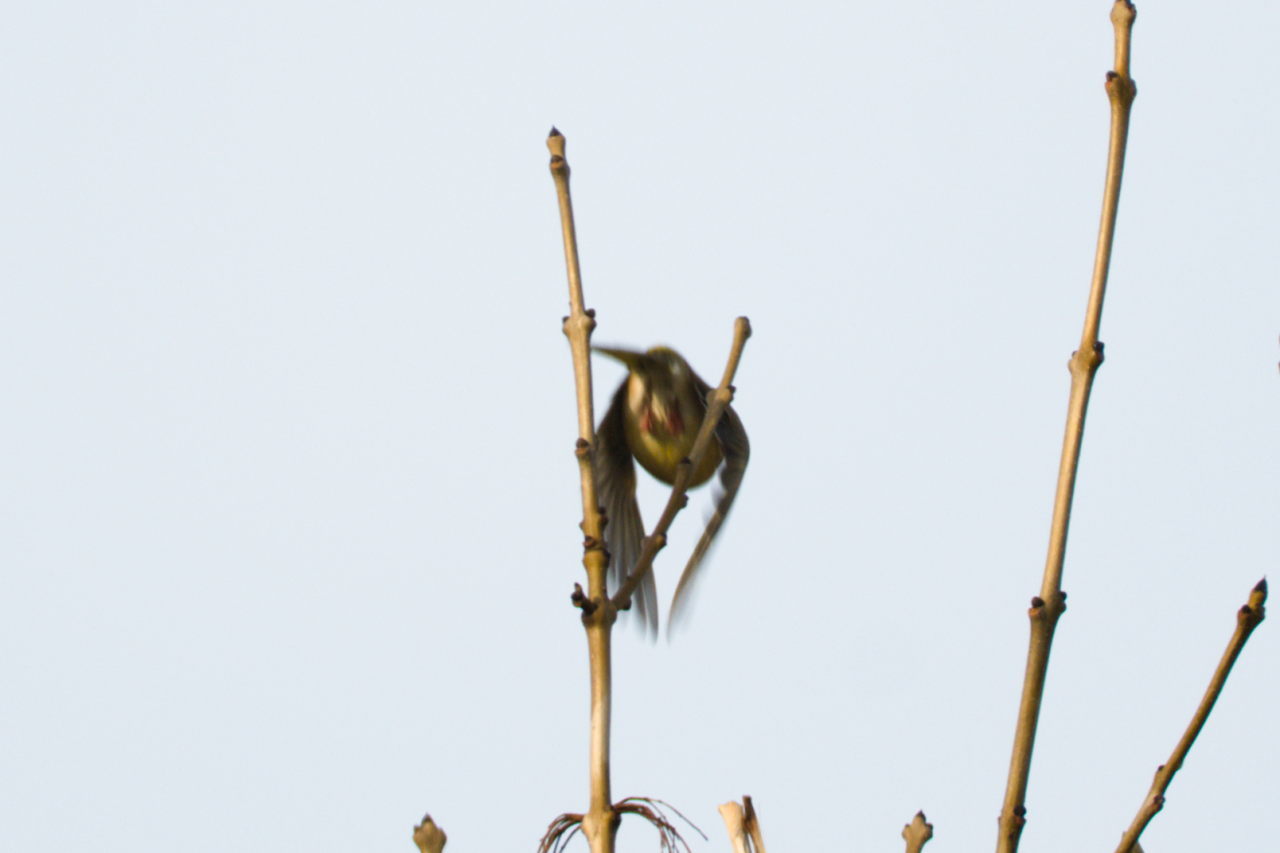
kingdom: Plantae
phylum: Tracheophyta
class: Liliopsida
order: Poales
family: Poaceae
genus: Chloris
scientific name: Chloris chloris
